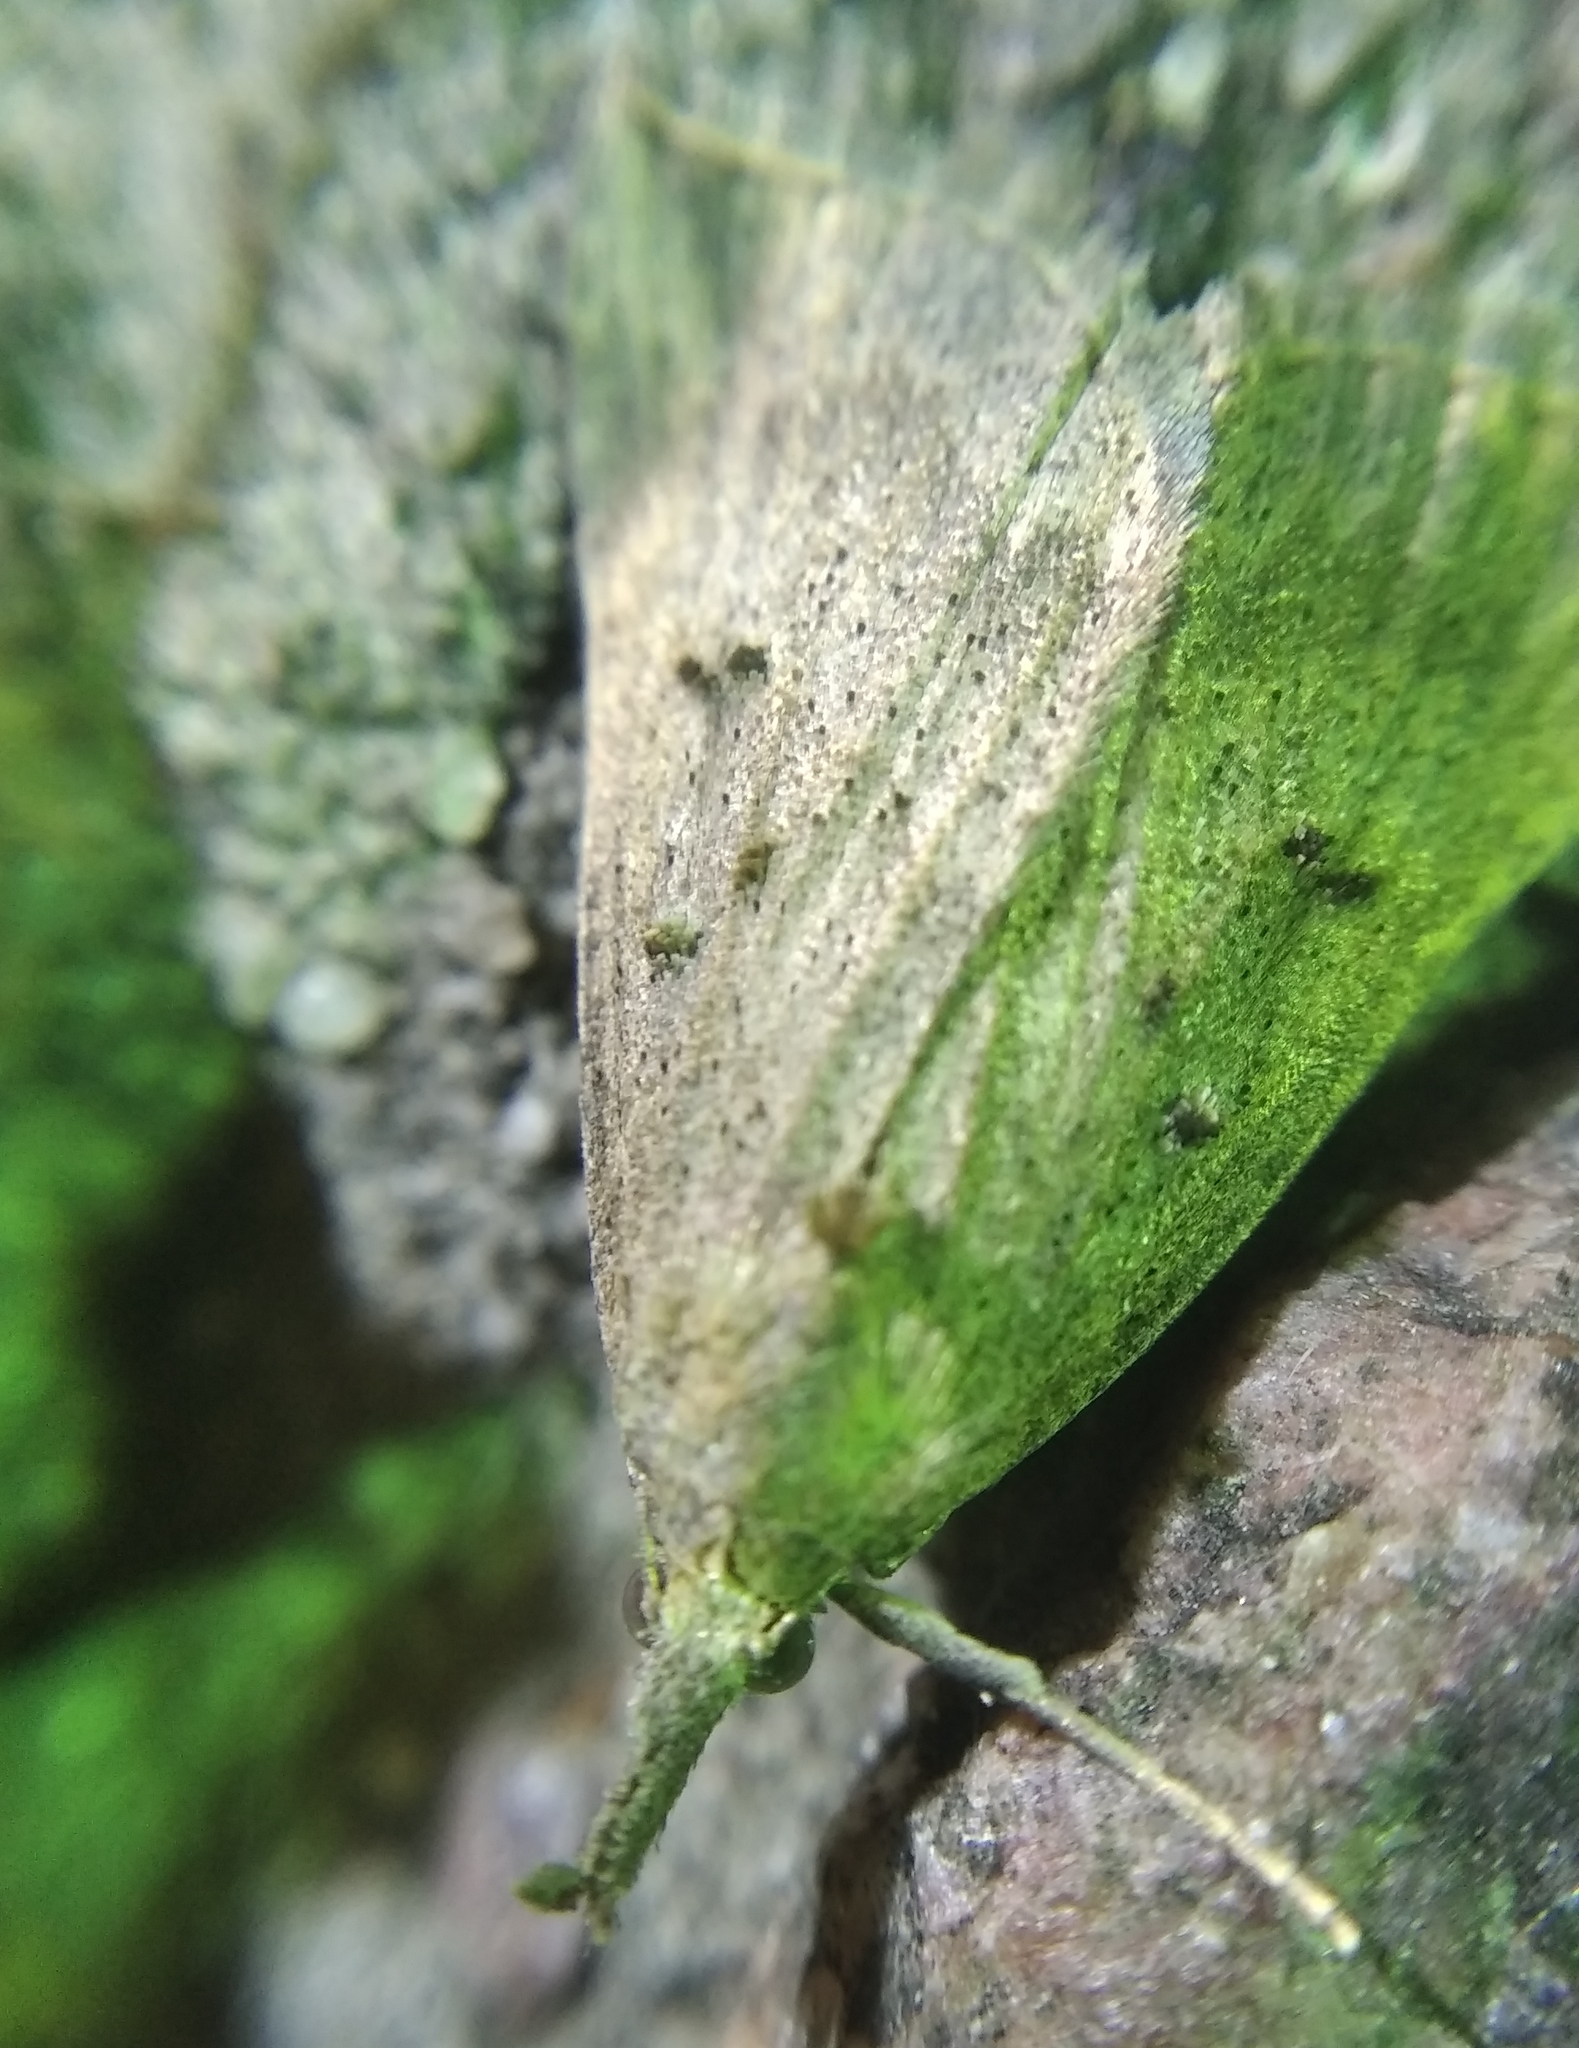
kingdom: Animalia
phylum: Arthropoda
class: Insecta
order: Lepidoptera
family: Erebidae
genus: Hypena
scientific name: Hypena rostralis
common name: Buttoned snout
